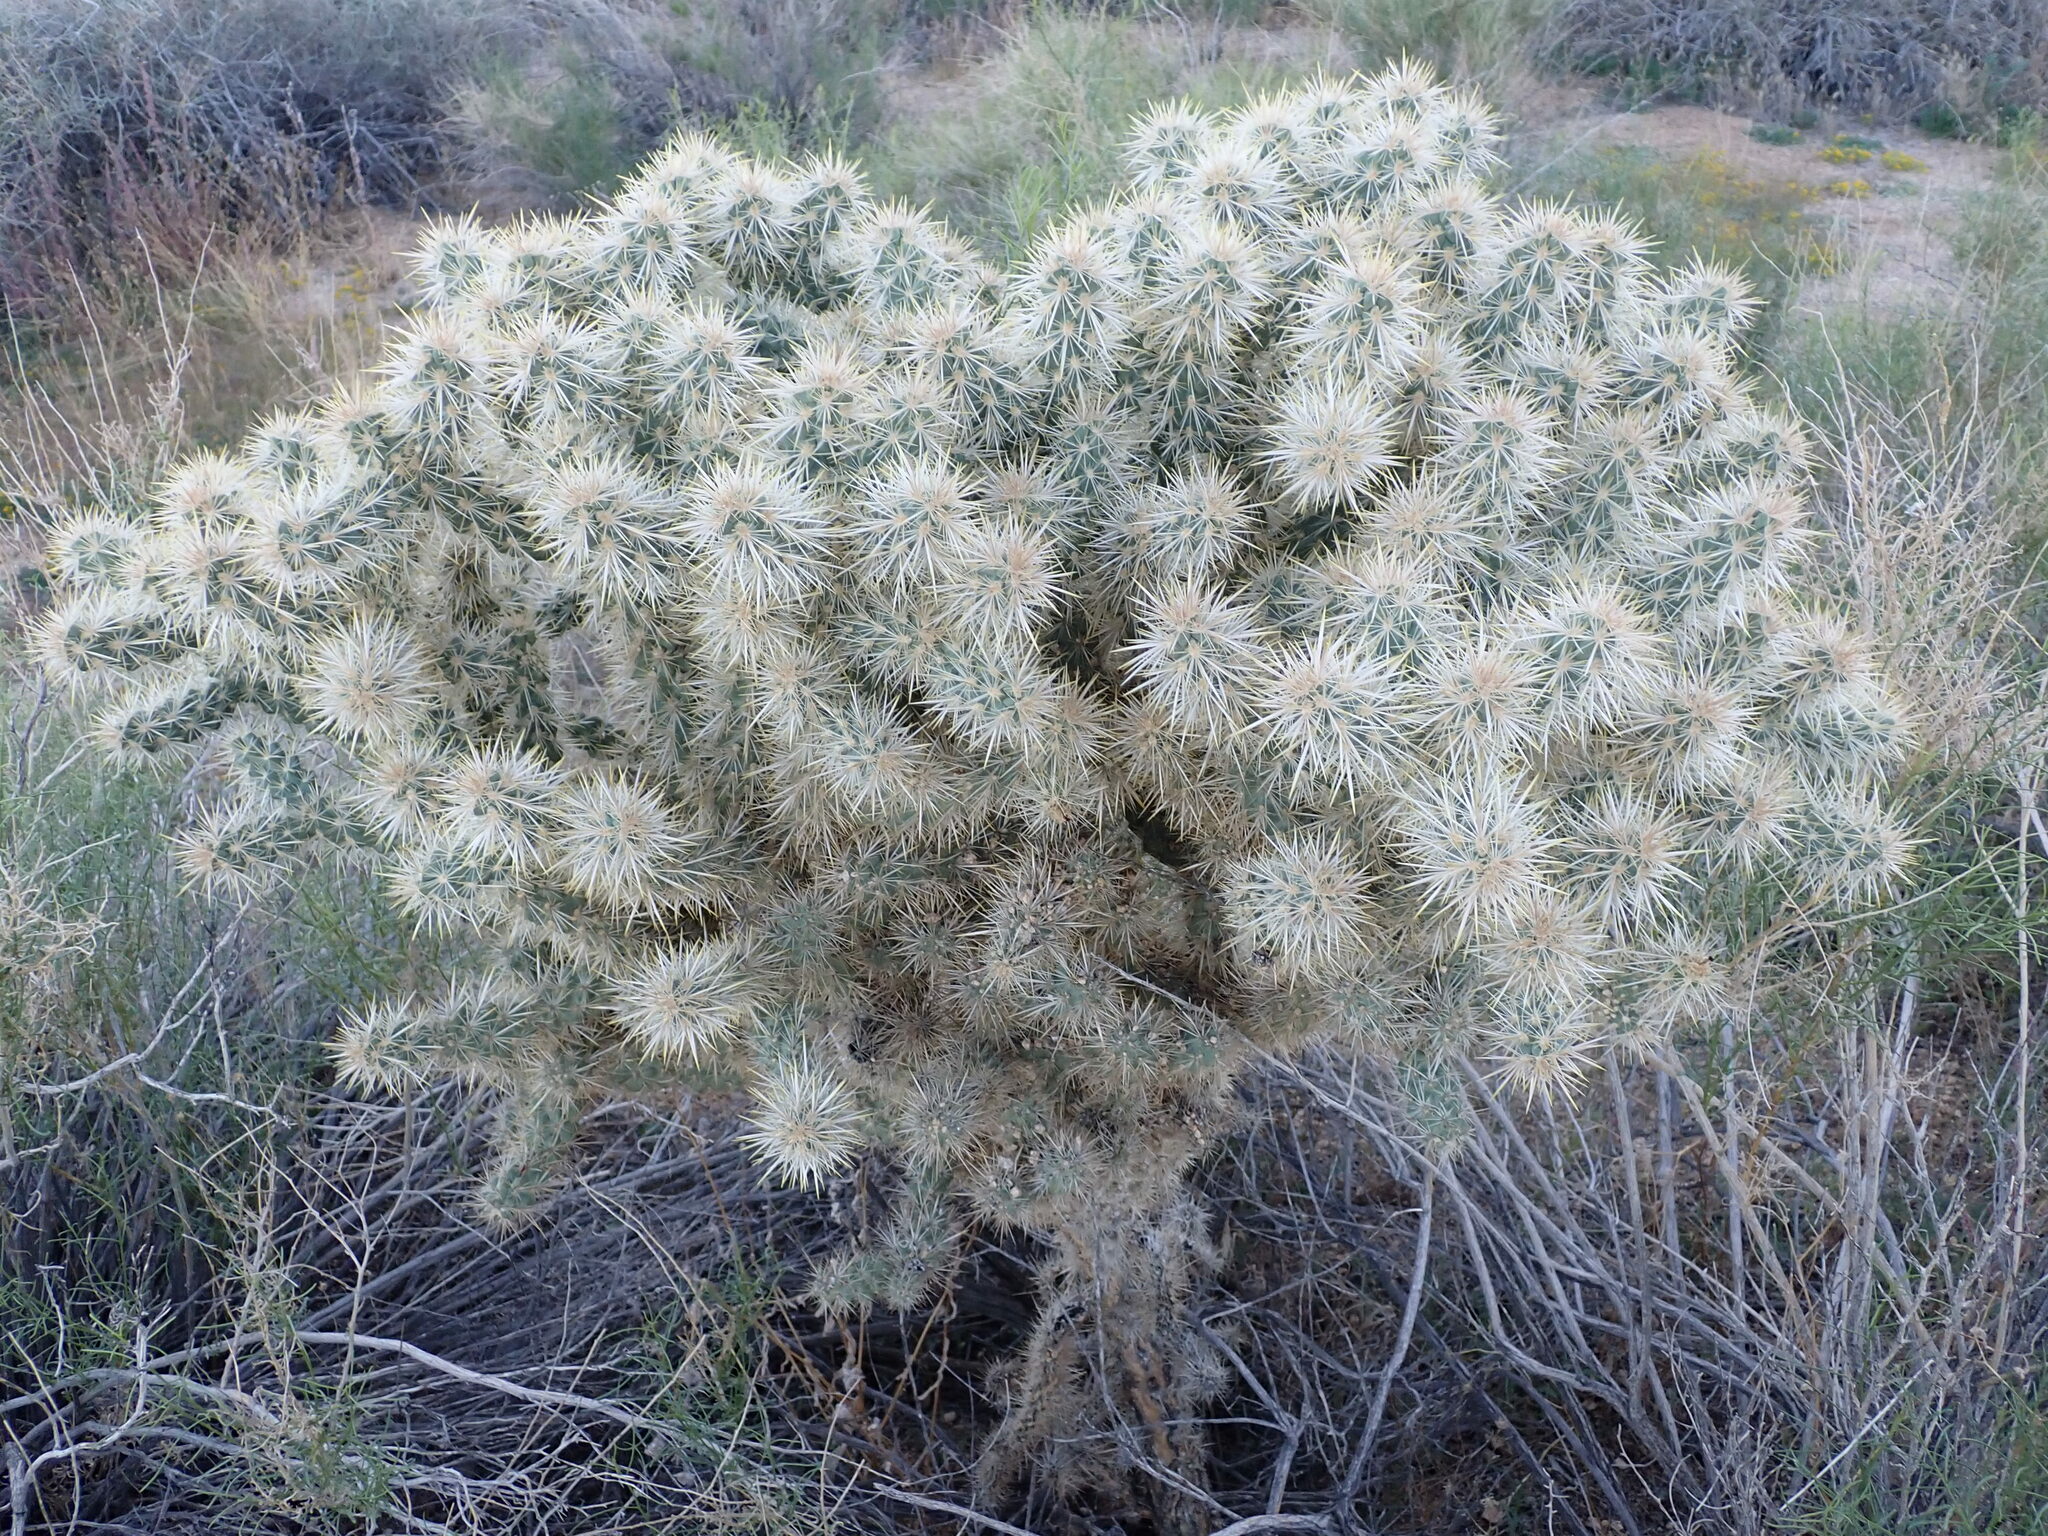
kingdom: Plantae
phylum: Tracheophyta
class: Magnoliopsida
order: Caryophyllales
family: Cactaceae
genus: Cylindropuntia
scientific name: Cylindropuntia echinocarpa
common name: Ground cholla
